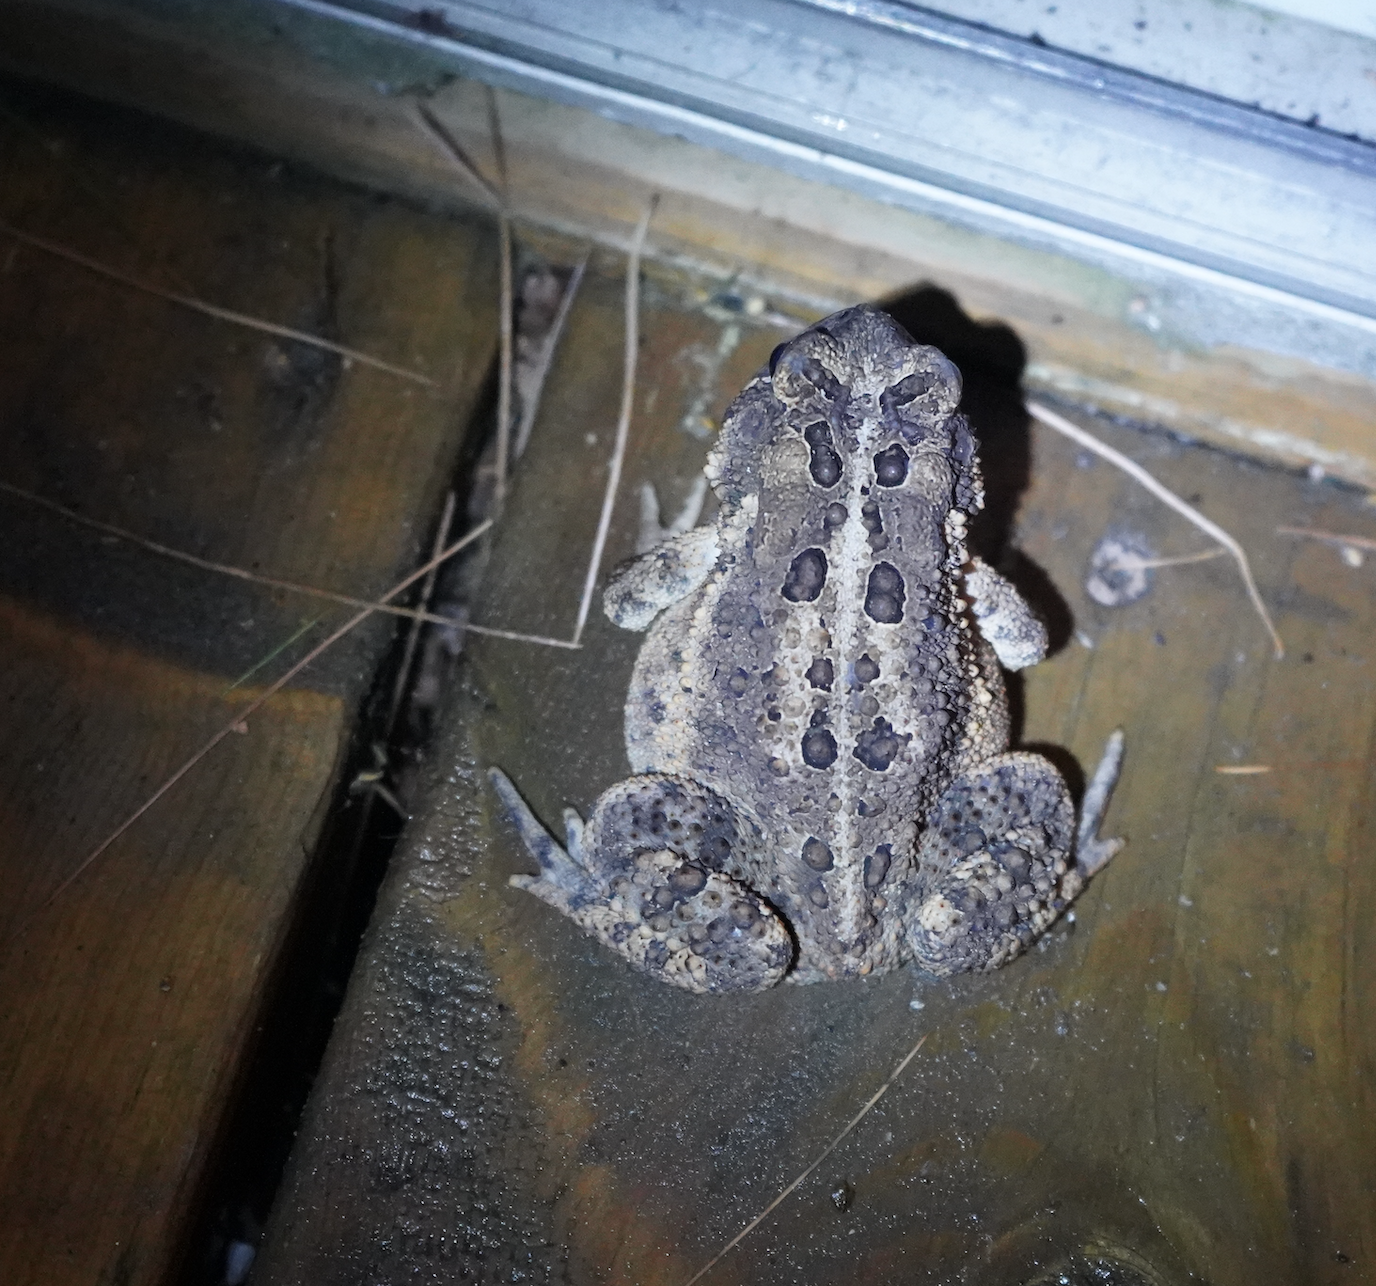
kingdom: Animalia
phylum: Chordata
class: Amphibia
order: Anura
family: Bufonidae
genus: Anaxyrus
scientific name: Anaxyrus americanus
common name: American toad
